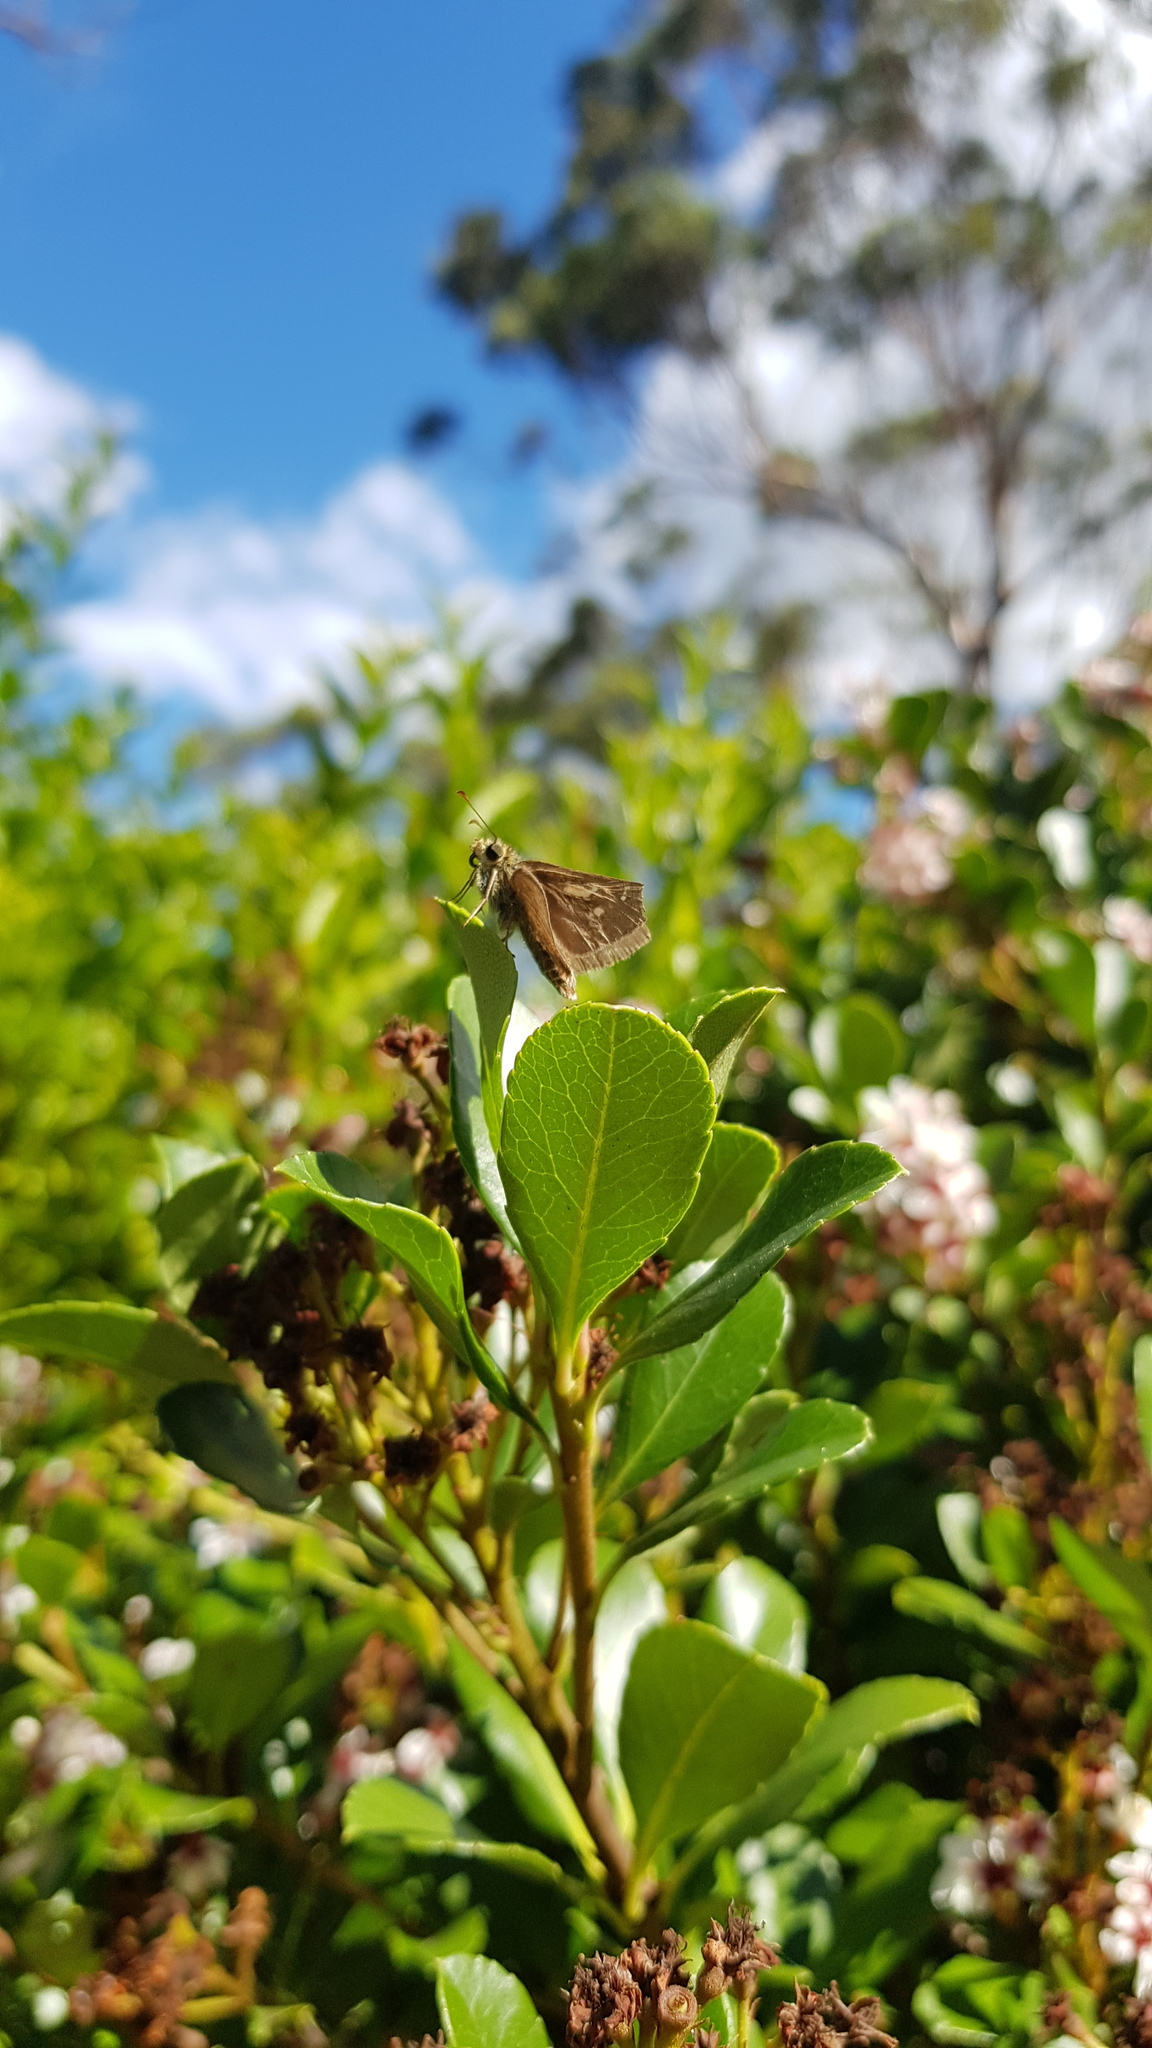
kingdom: Animalia
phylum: Arthropoda
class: Insecta
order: Lepidoptera
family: Hesperiidae
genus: Toxidia
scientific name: Toxidia
